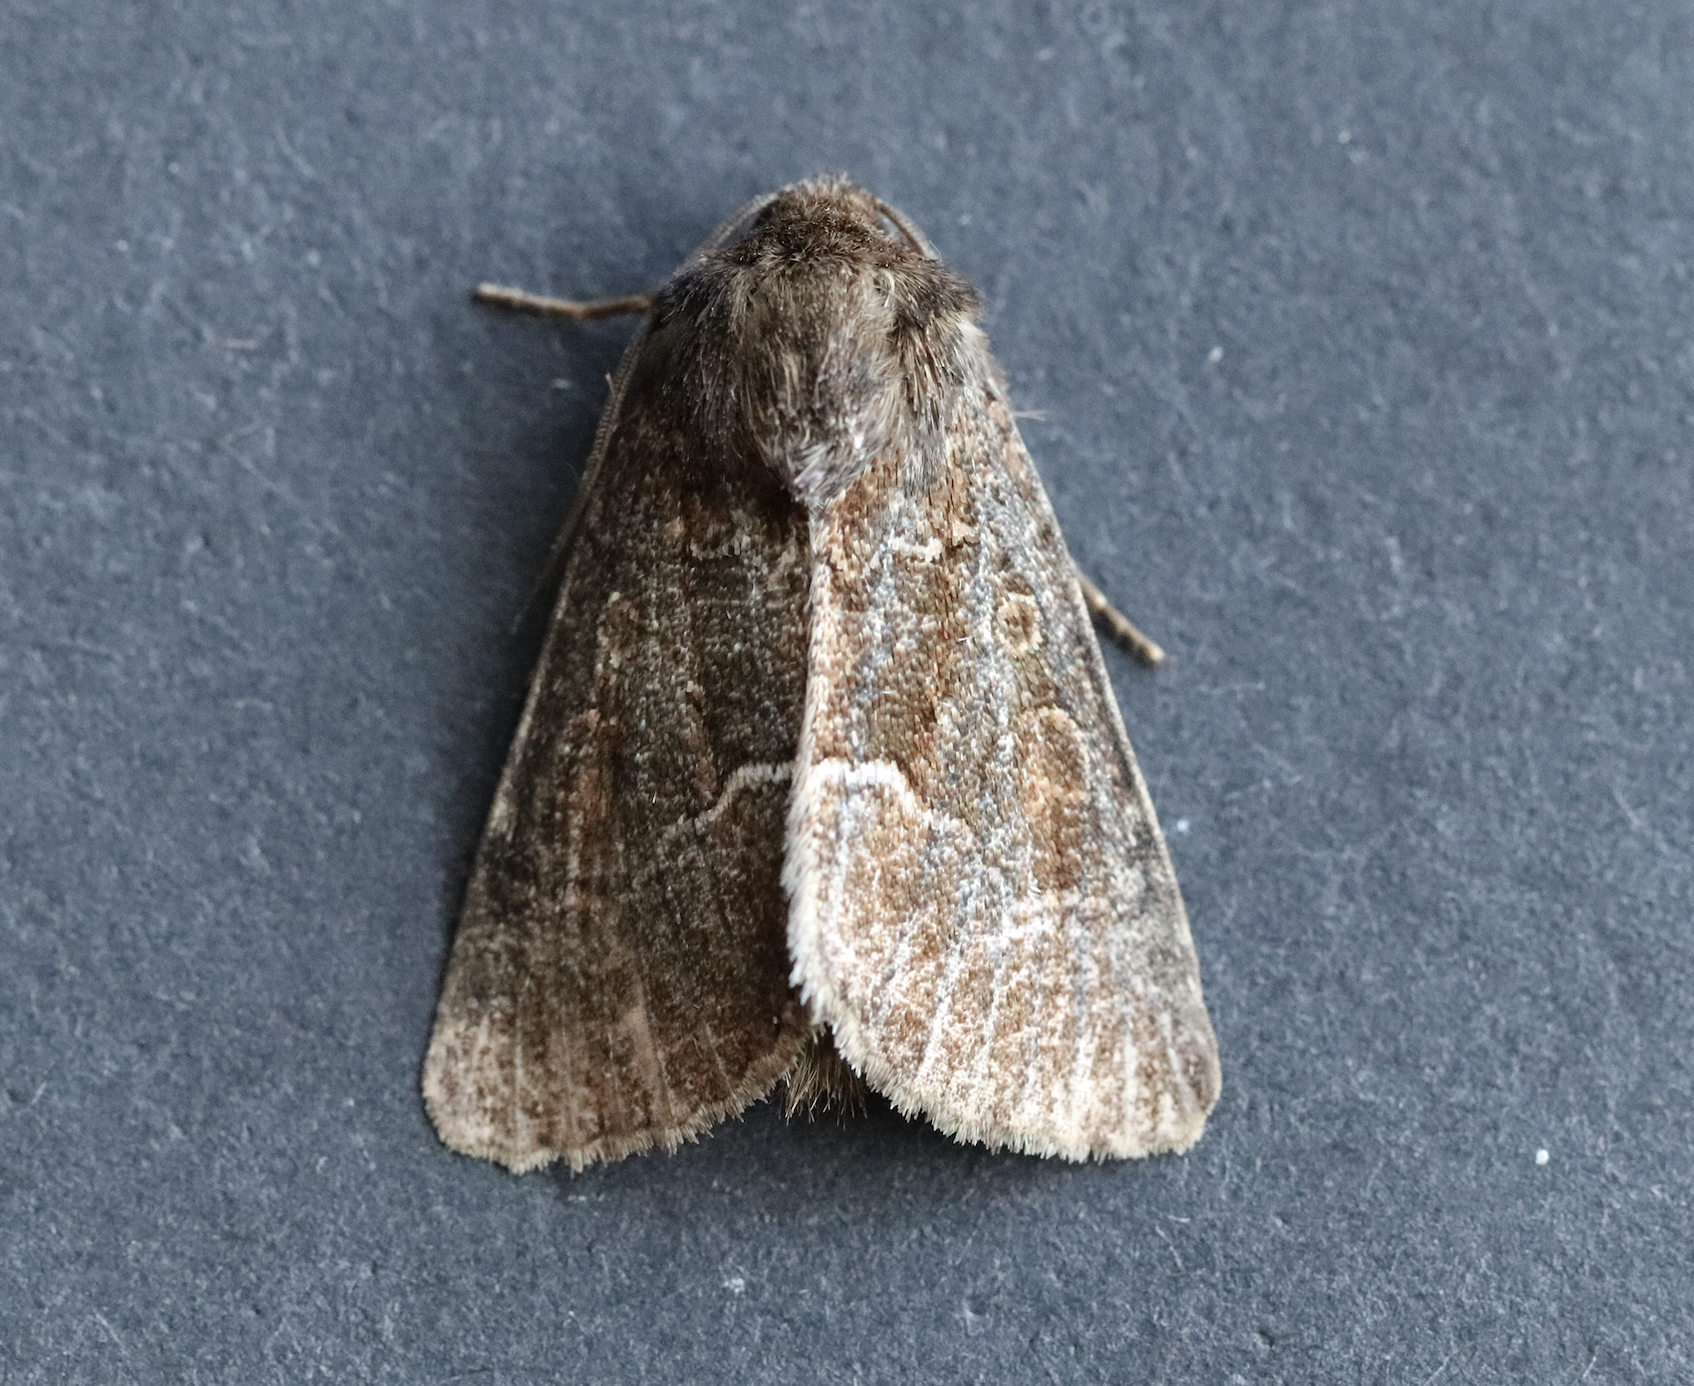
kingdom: Animalia
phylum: Arthropoda
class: Insecta
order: Lepidoptera
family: Noctuidae
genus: Thalpophila
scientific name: Thalpophila matura
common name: Straw underwing
